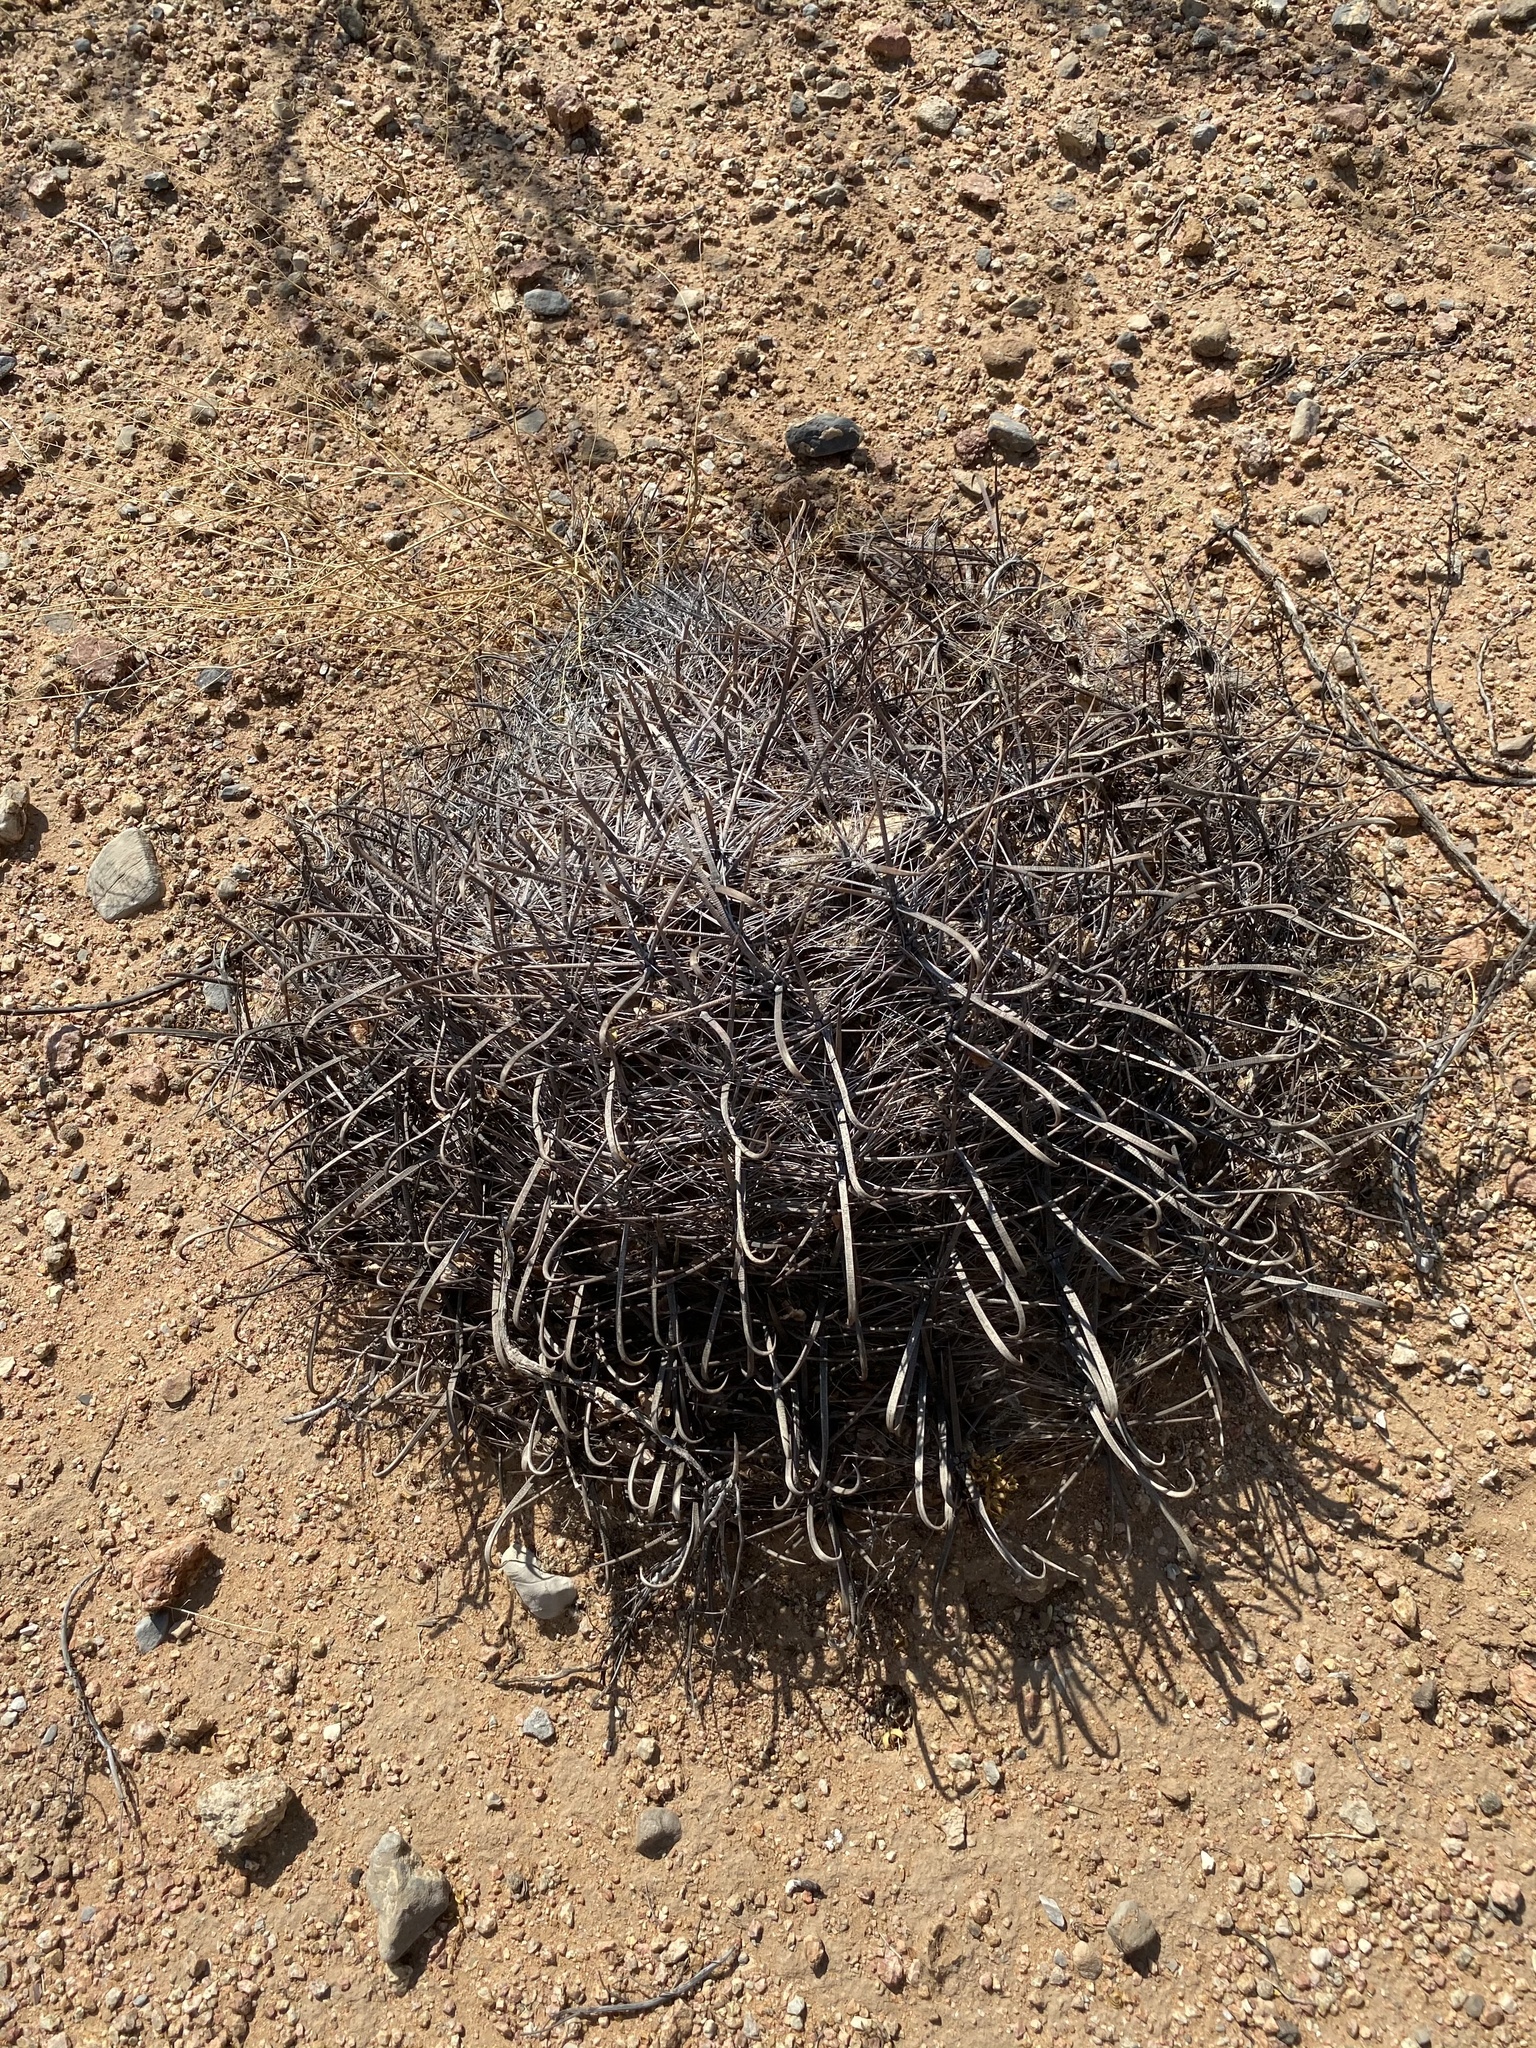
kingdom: Plantae
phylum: Tracheophyta
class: Magnoliopsida
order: Caryophyllales
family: Cactaceae
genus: Ferocactus
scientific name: Ferocactus wislizeni
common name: Candy barrel cactus
